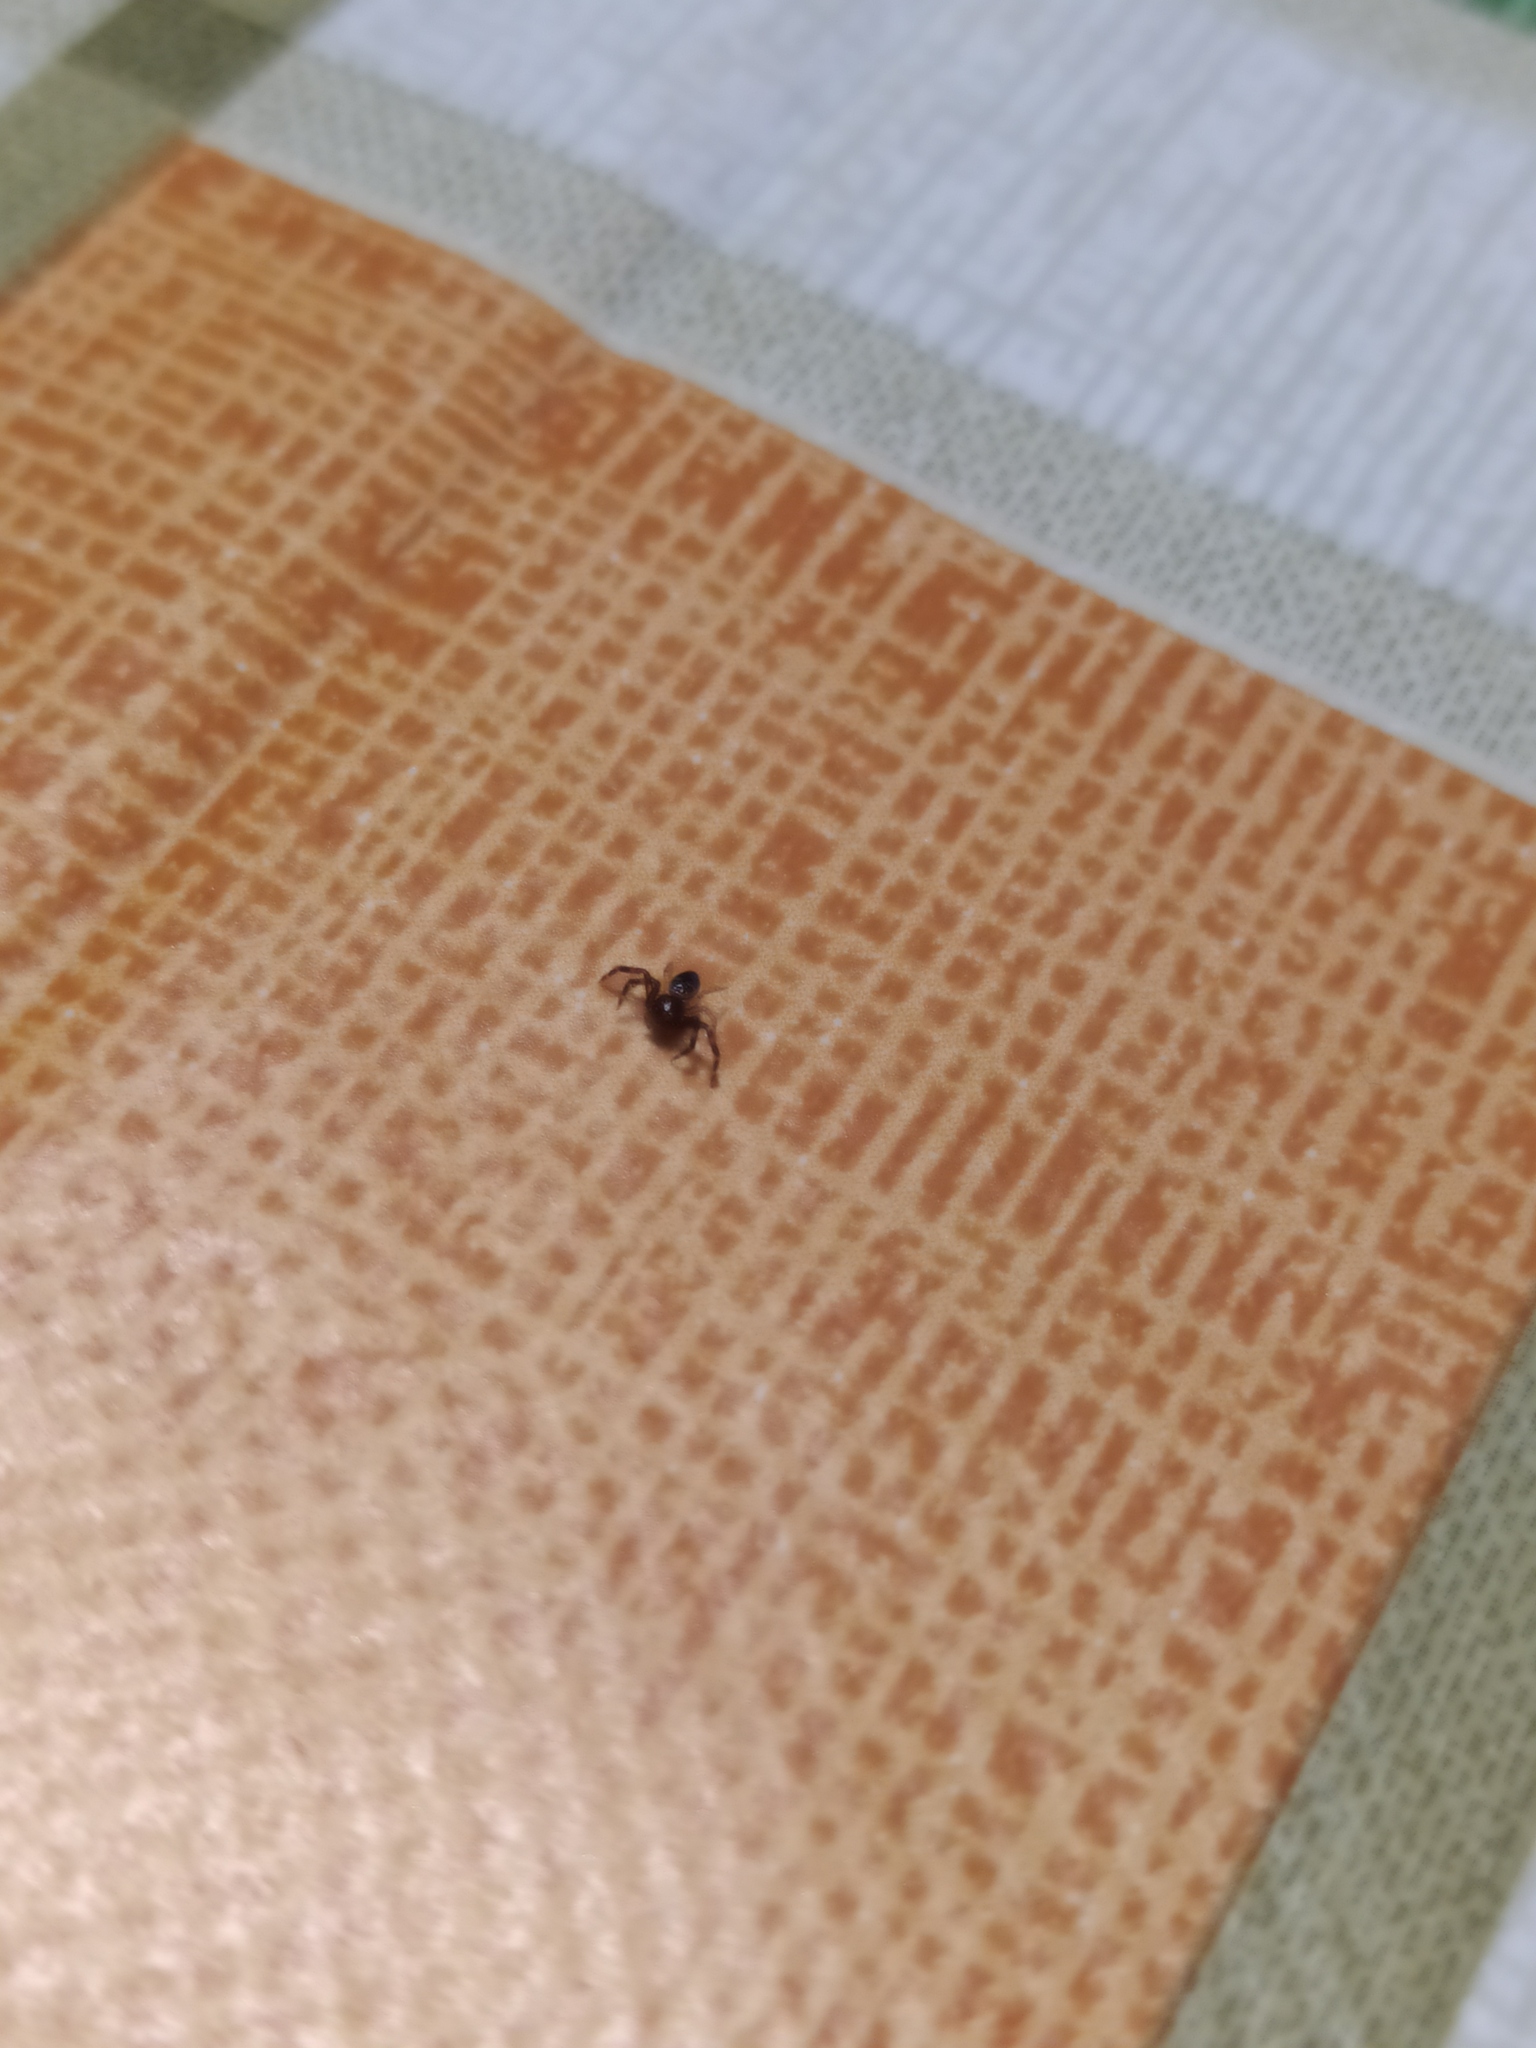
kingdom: Animalia
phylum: Arthropoda
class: Arachnida
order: Araneae
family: Thomisidae
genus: Synema
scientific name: Synema globosum
